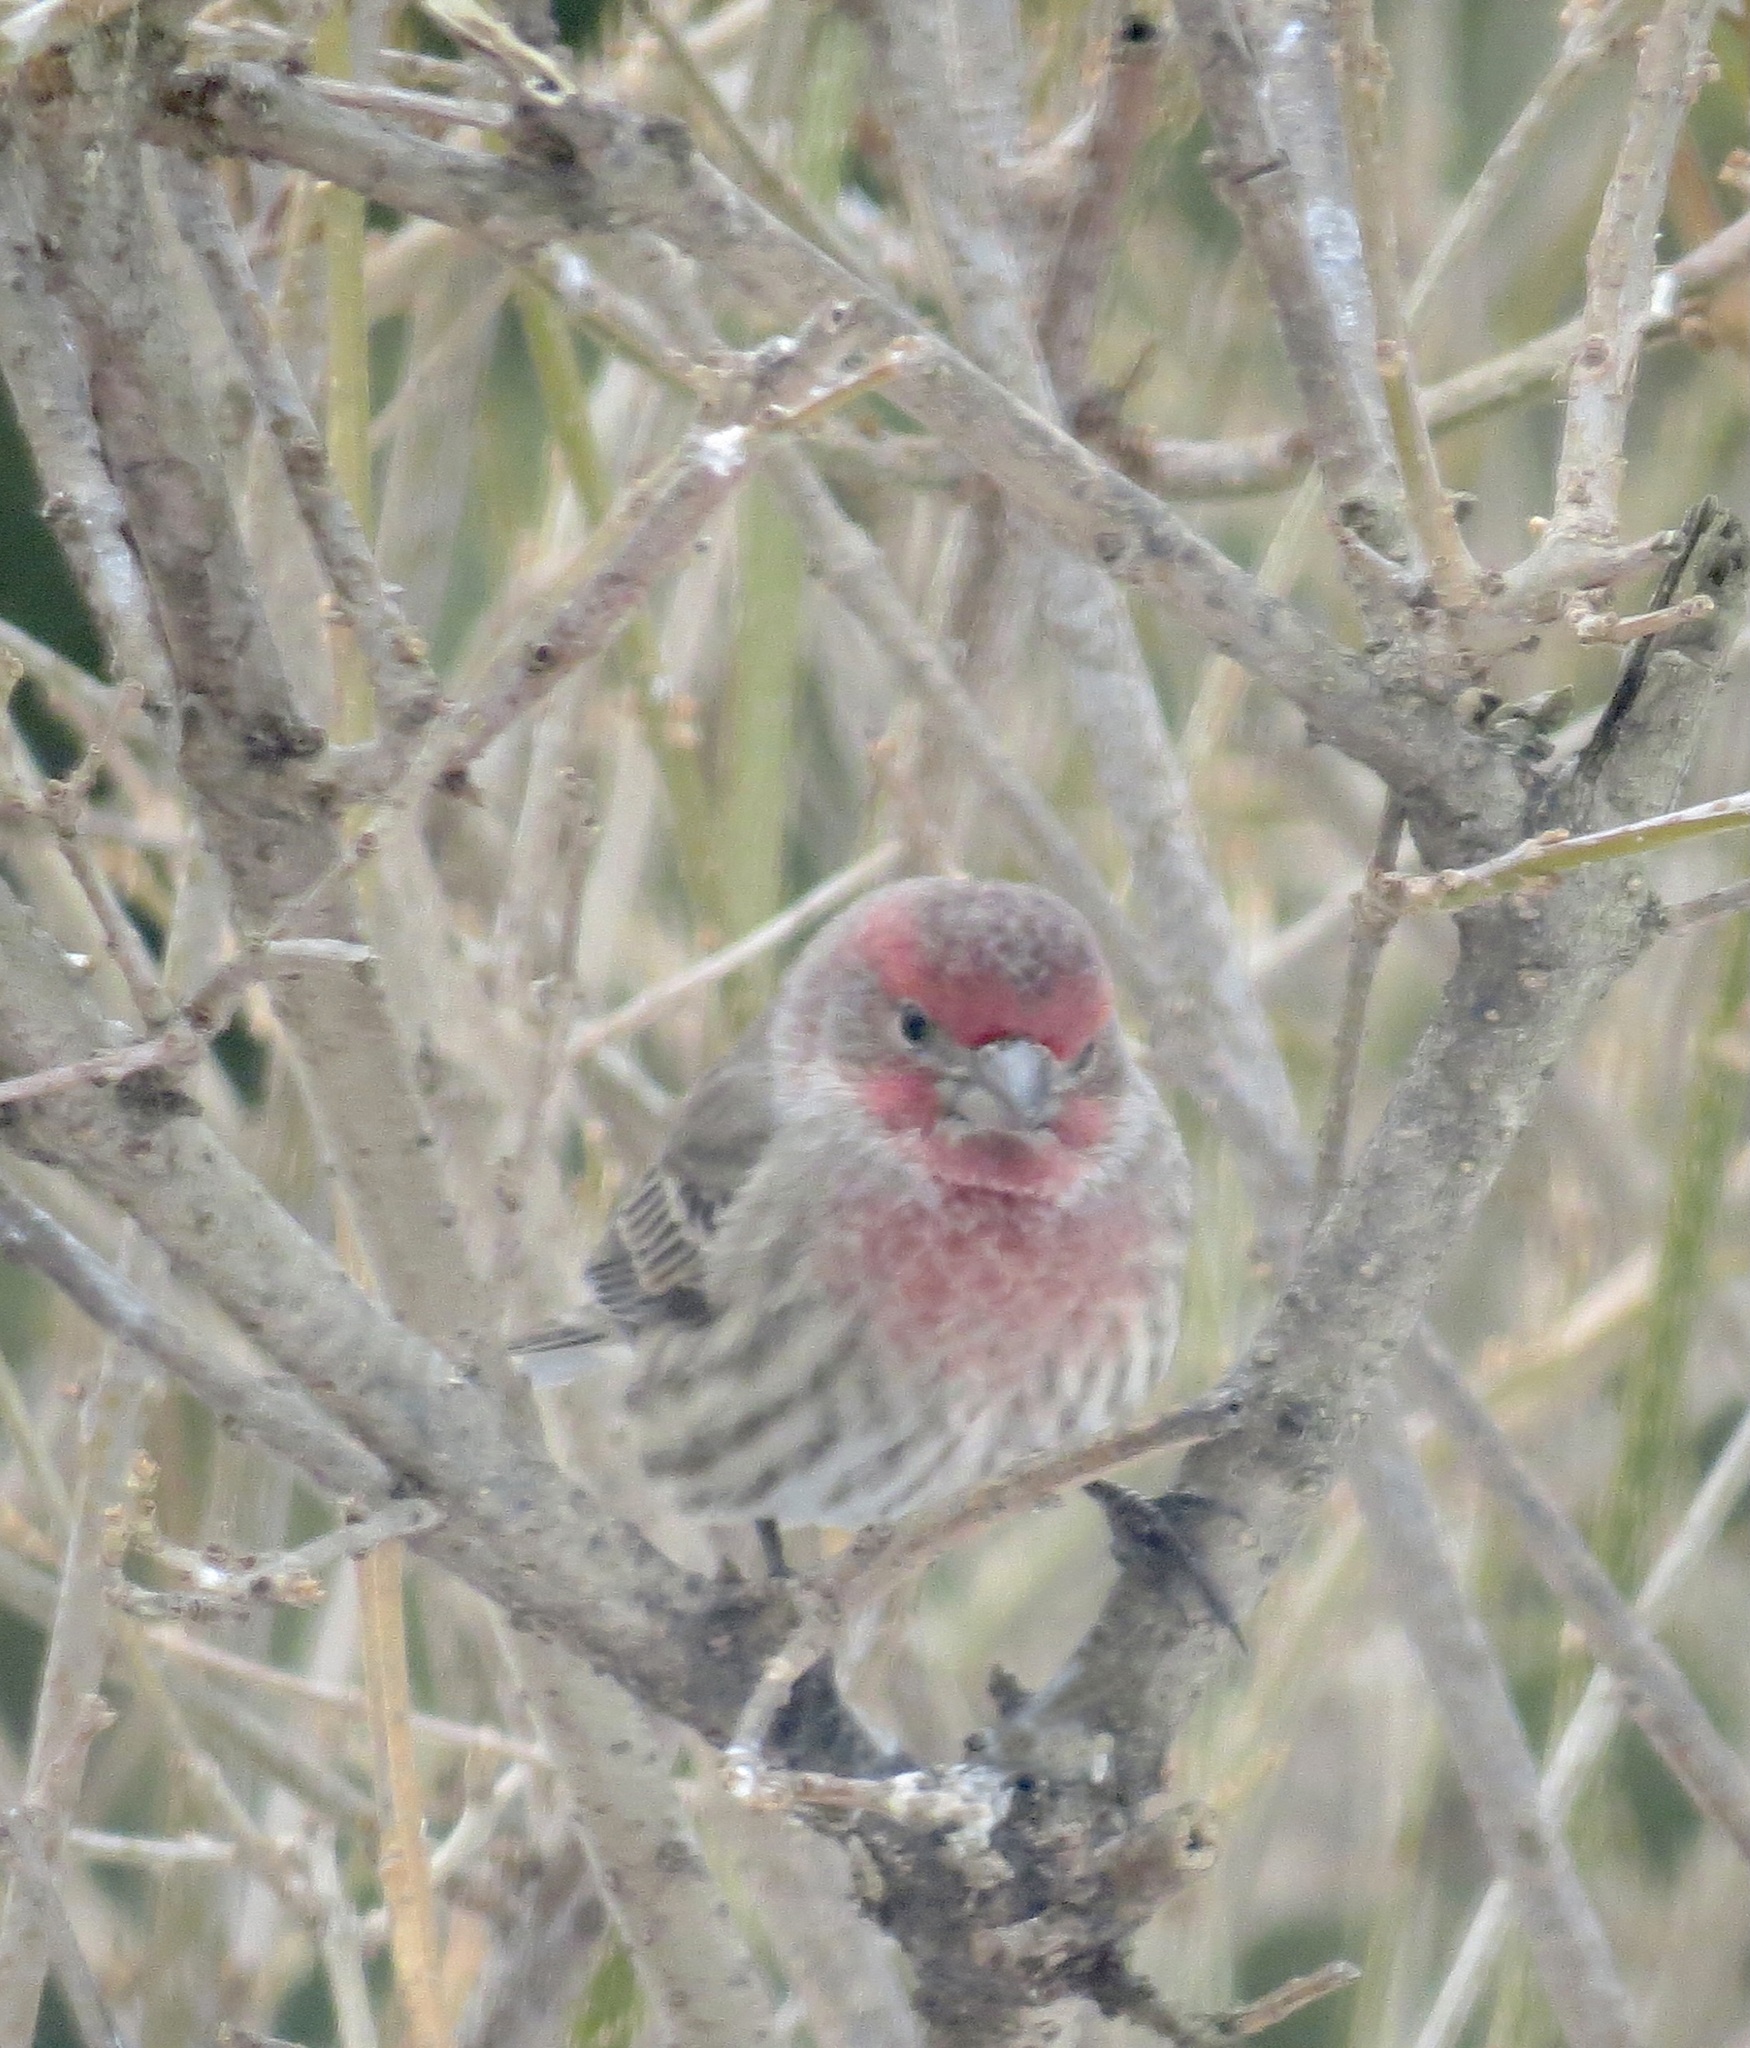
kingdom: Animalia
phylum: Chordata
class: Aves
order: Passeriformes
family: Fringillidae
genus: Haemorhous
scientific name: Haemorhous mexicanus
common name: House finch
